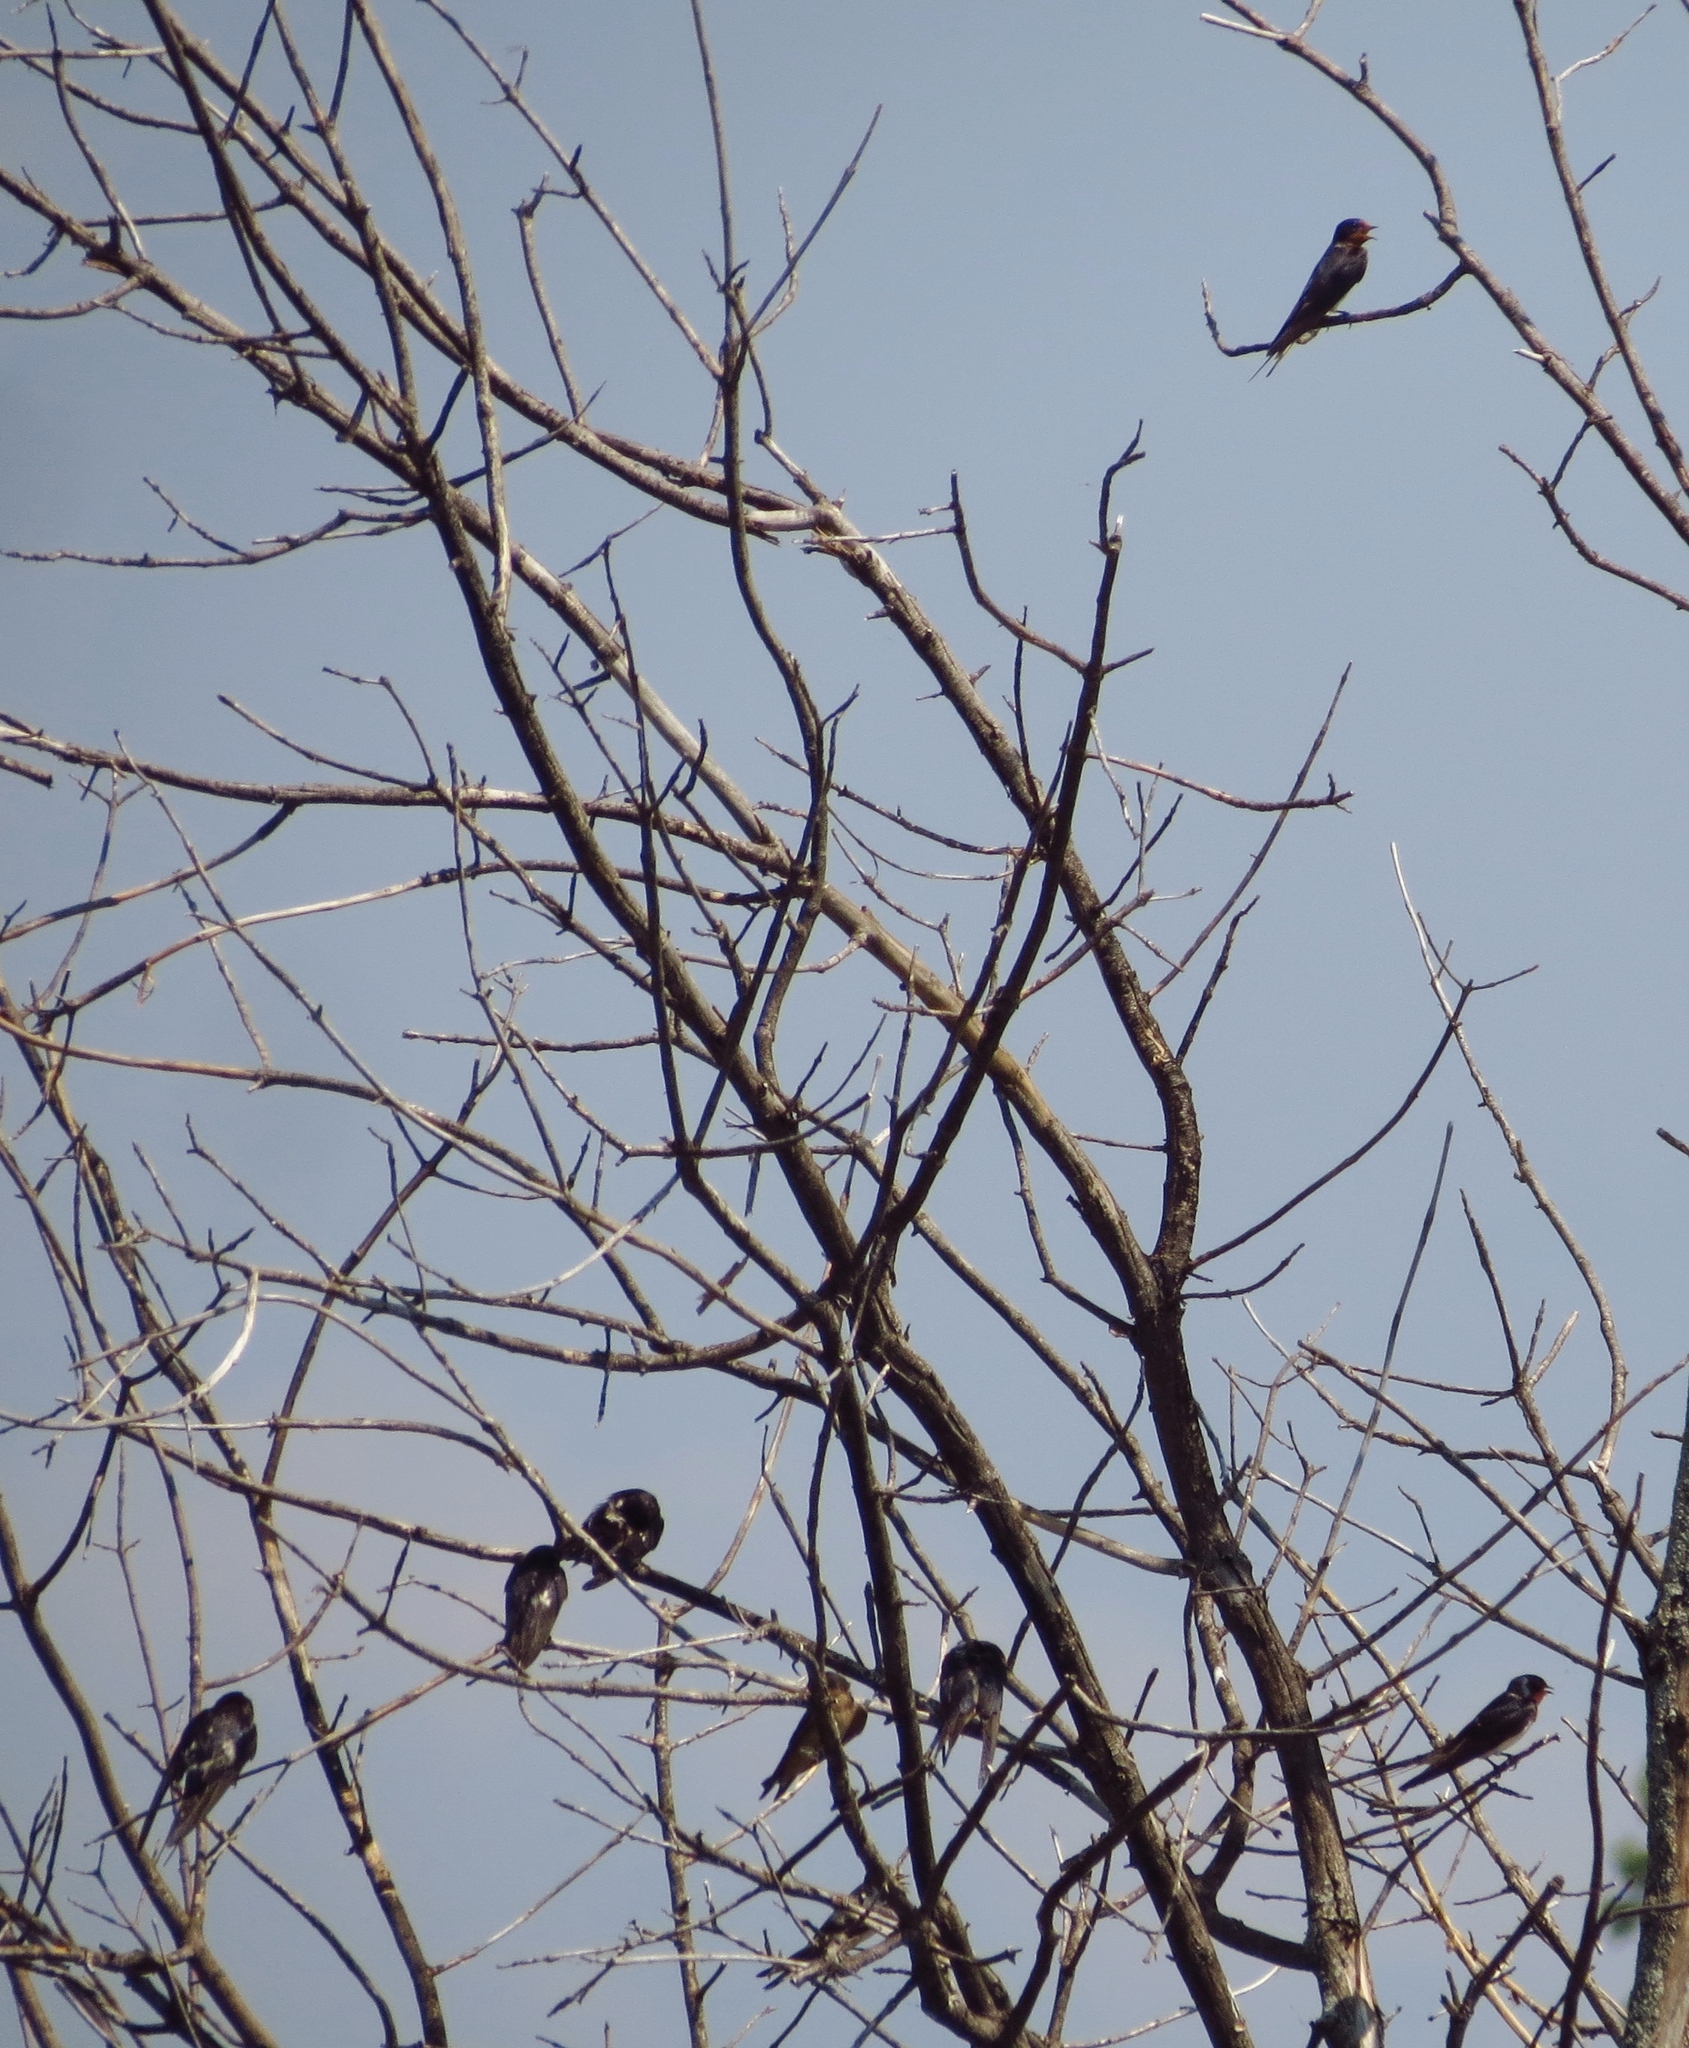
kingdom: Animalia
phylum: Chordata
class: Aves
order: Passeriformes
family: Hirundinidae
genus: Hirundo
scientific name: Hirundo rustica
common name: Barn swallow
